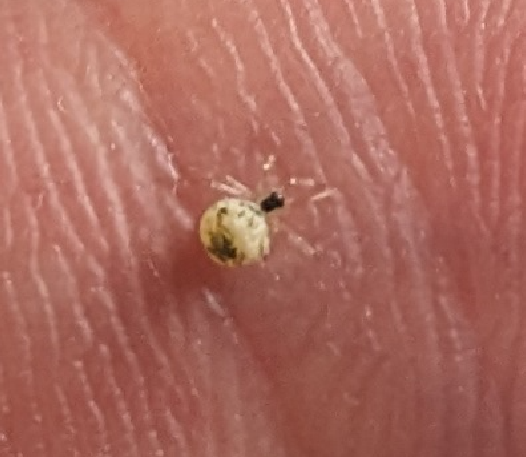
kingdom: Animalia
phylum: Arthropoda
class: Arachnida
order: Araneae
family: Theridiidae
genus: Paidiscura
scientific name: Paidiscura pallens
